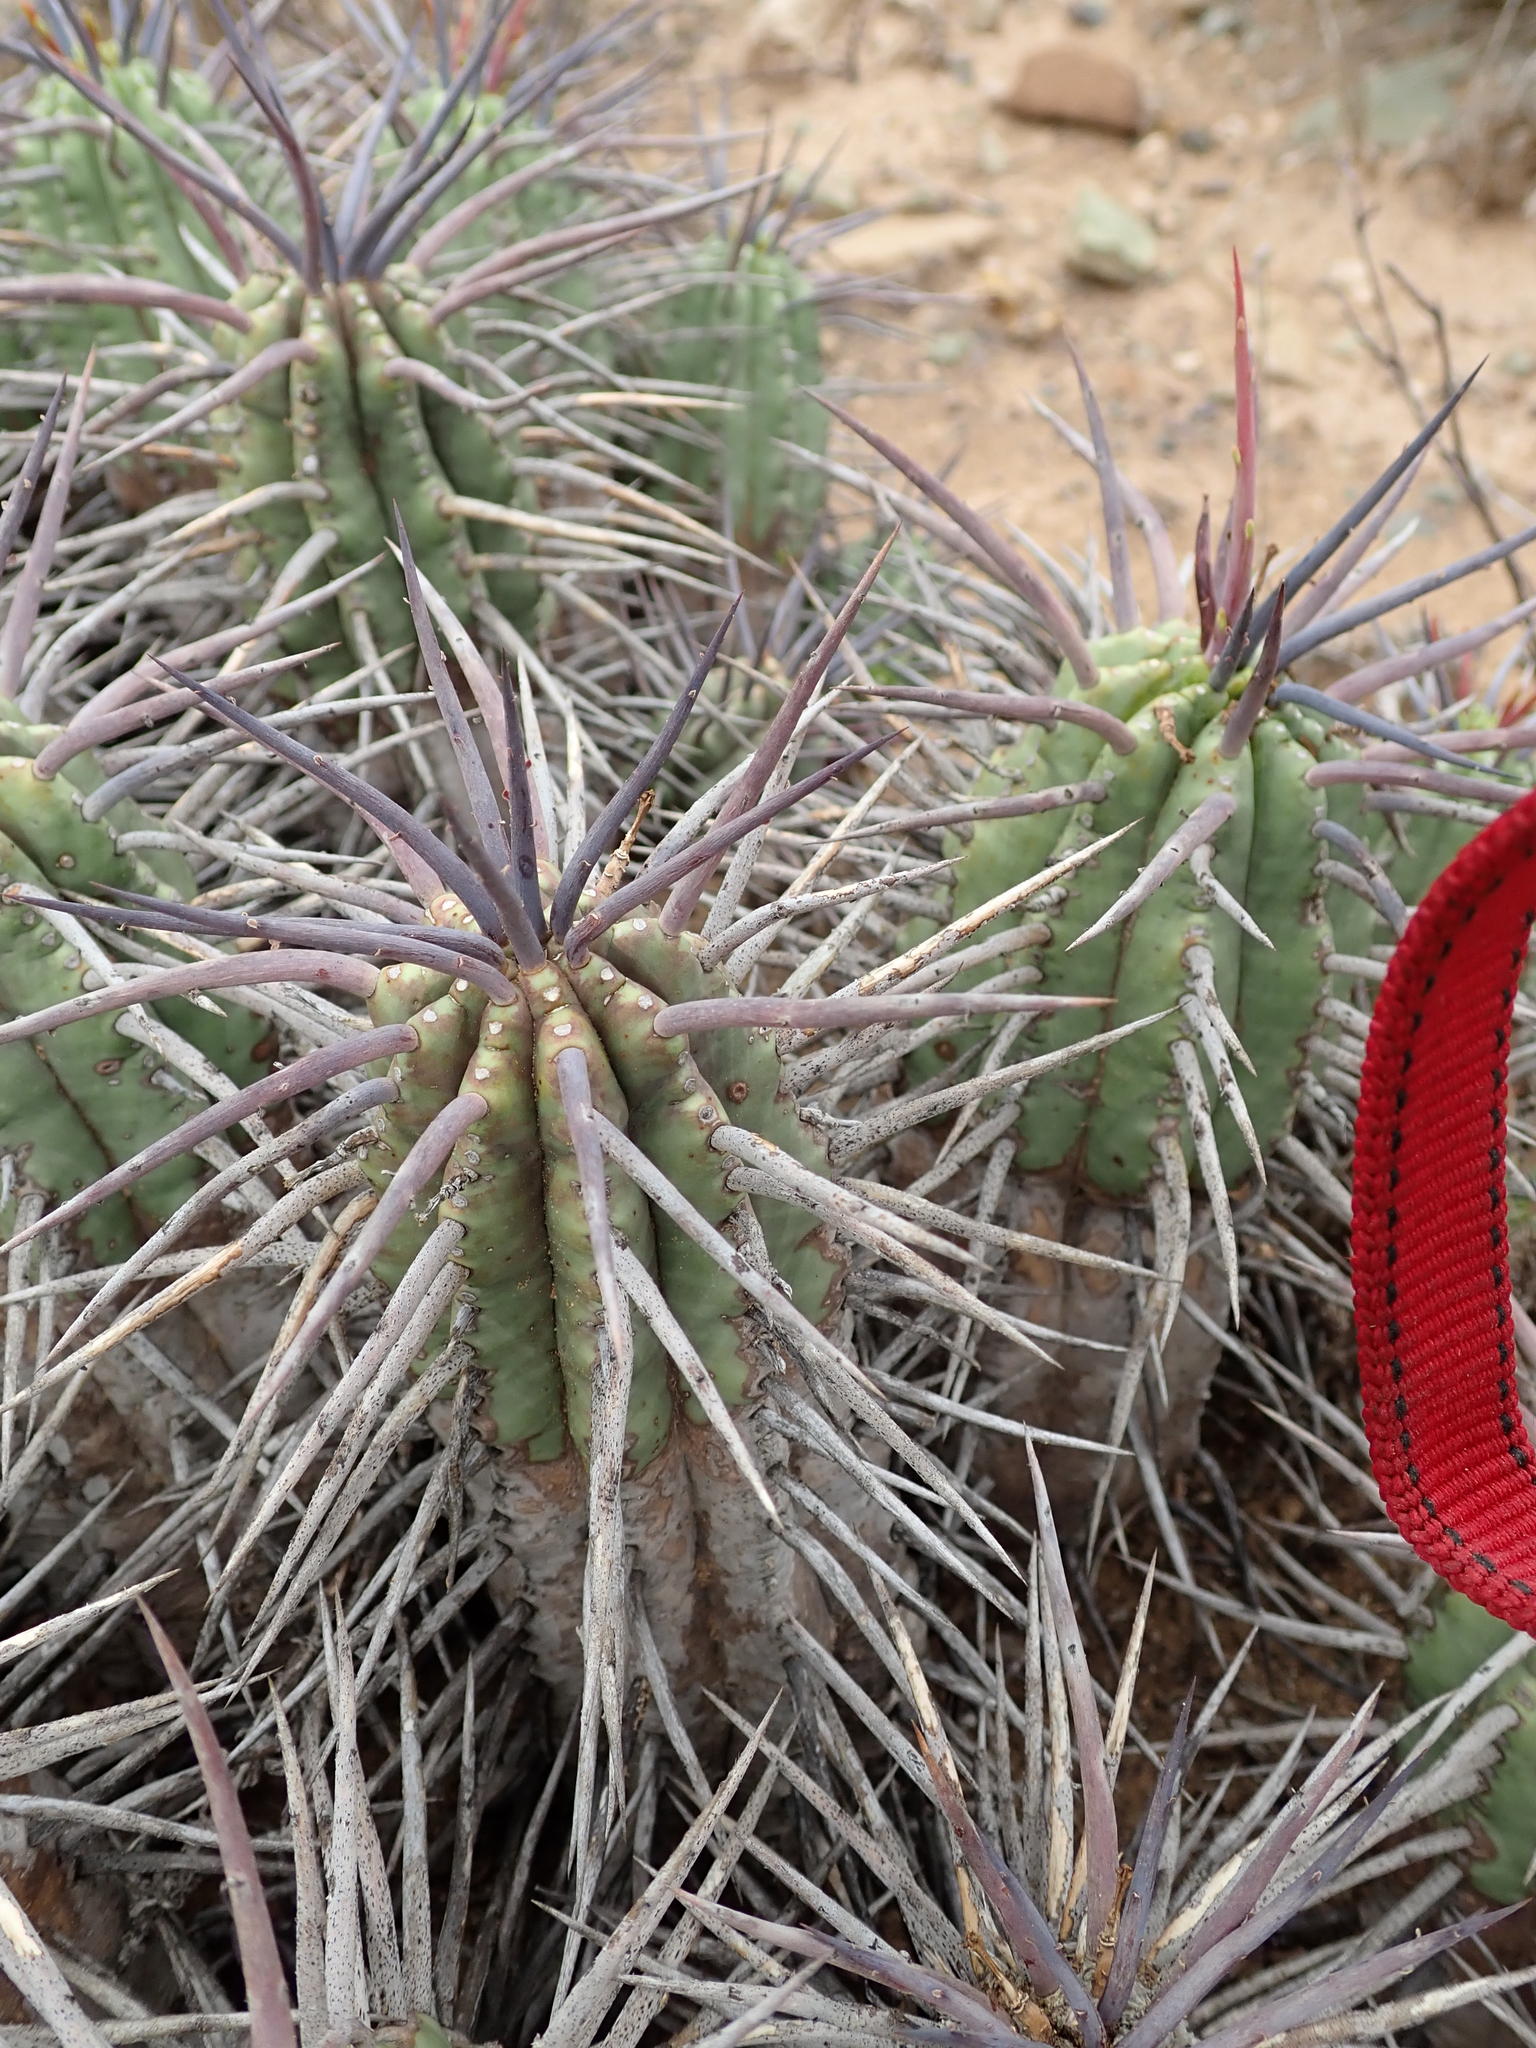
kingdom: Plantae
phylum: Tracheophyta
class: Magnoliopsida
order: Malpighiales
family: Euphorbiaceae
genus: Euphorbia
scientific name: Euphorbia ferox
